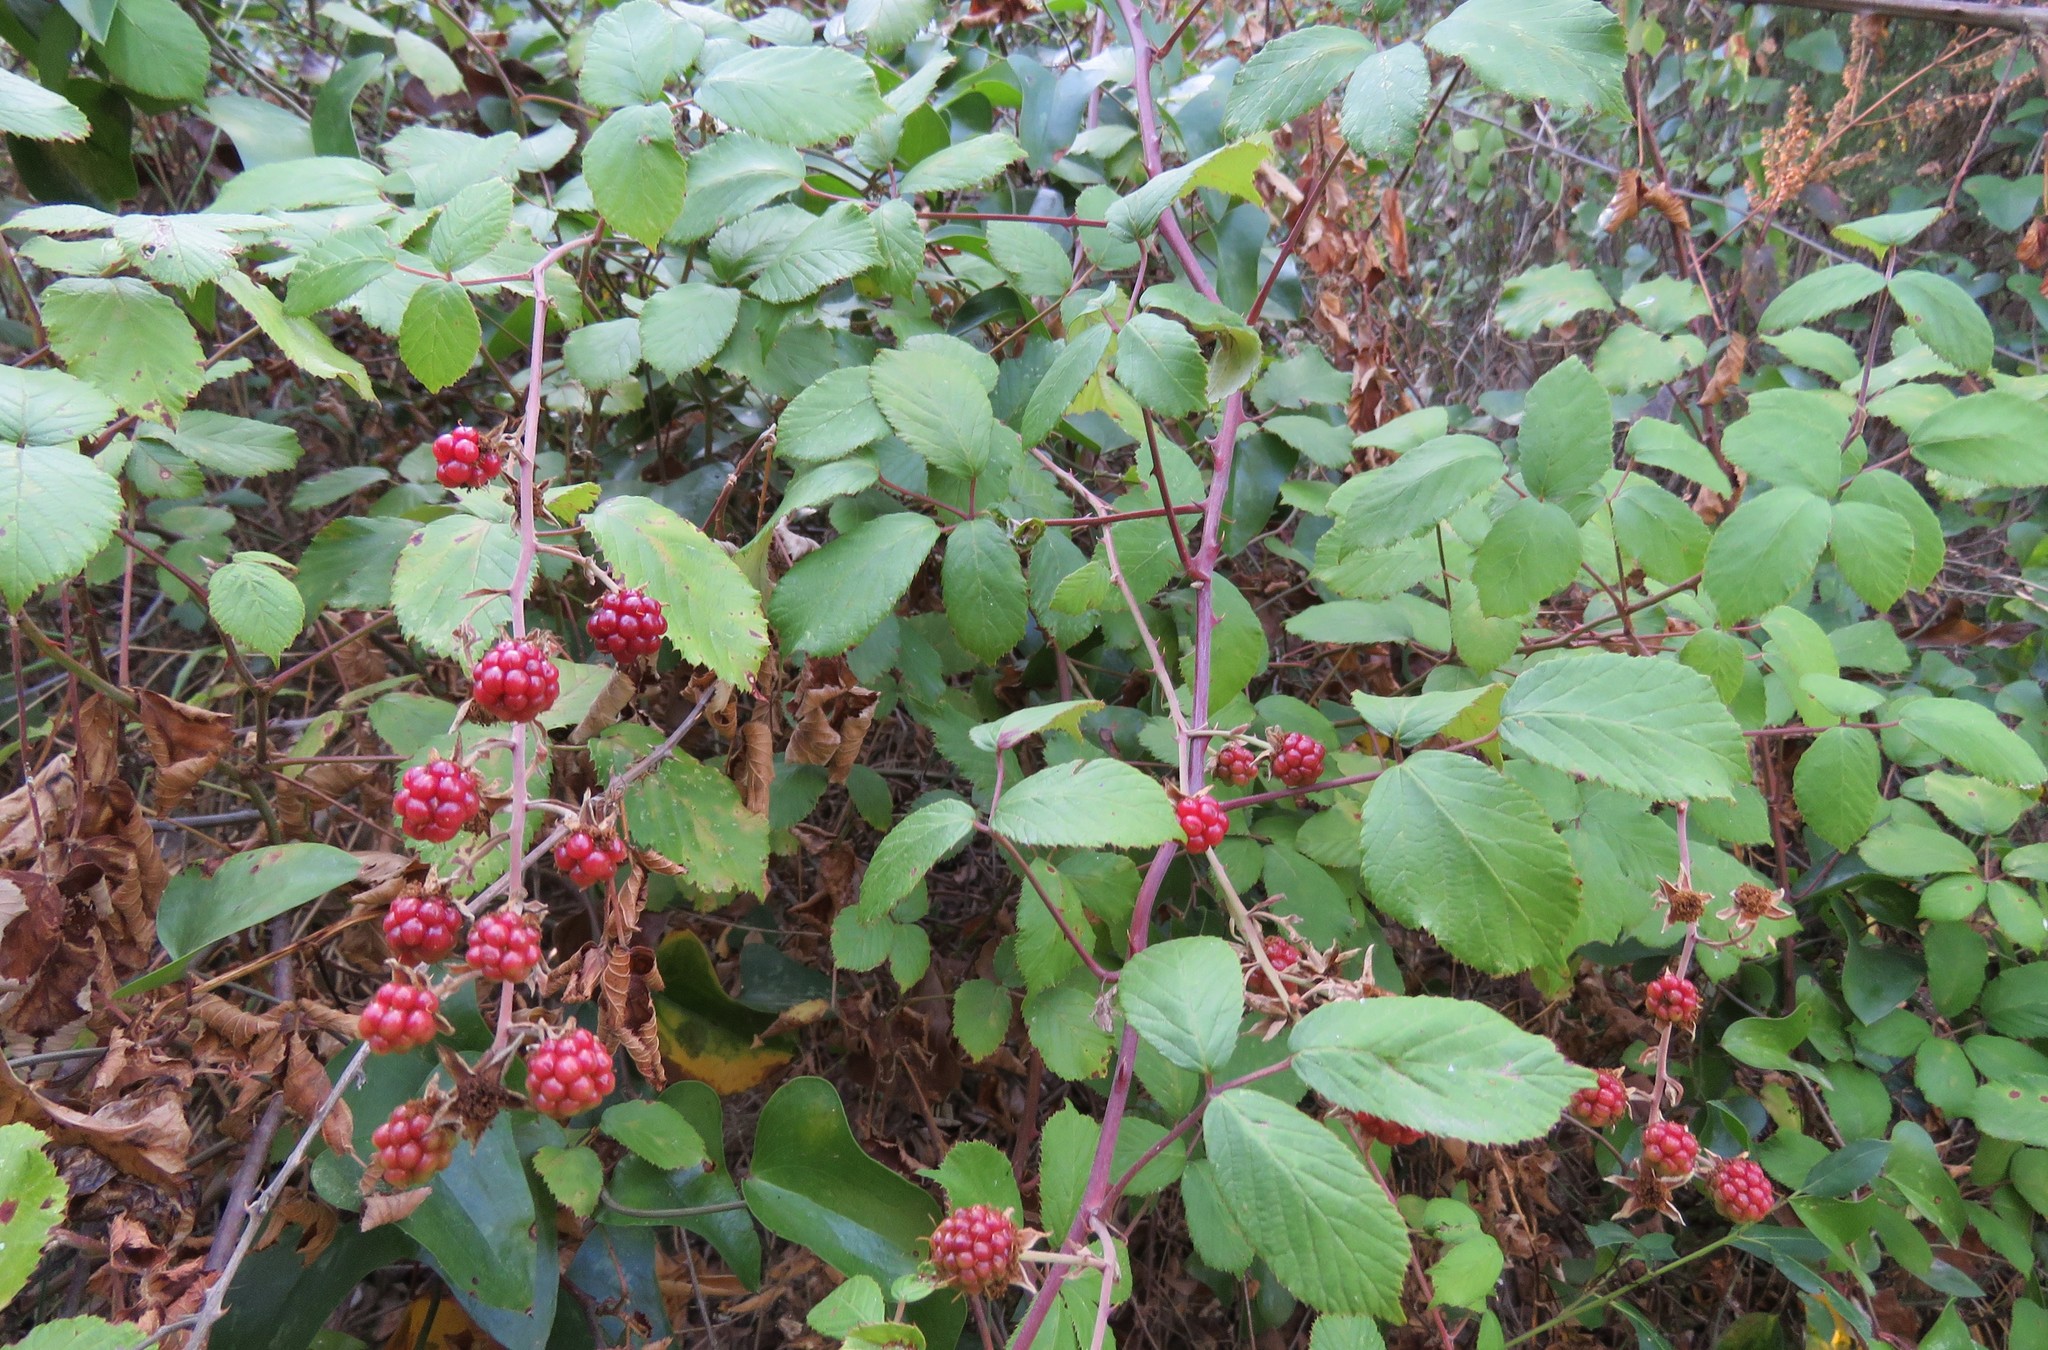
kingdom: Plantae
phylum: Tracheophyta
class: Magnoliopsida
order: Rosales
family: Rosaceae
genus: Rubus
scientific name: Rubus ulmifolius
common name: Elmleaf blackberry
